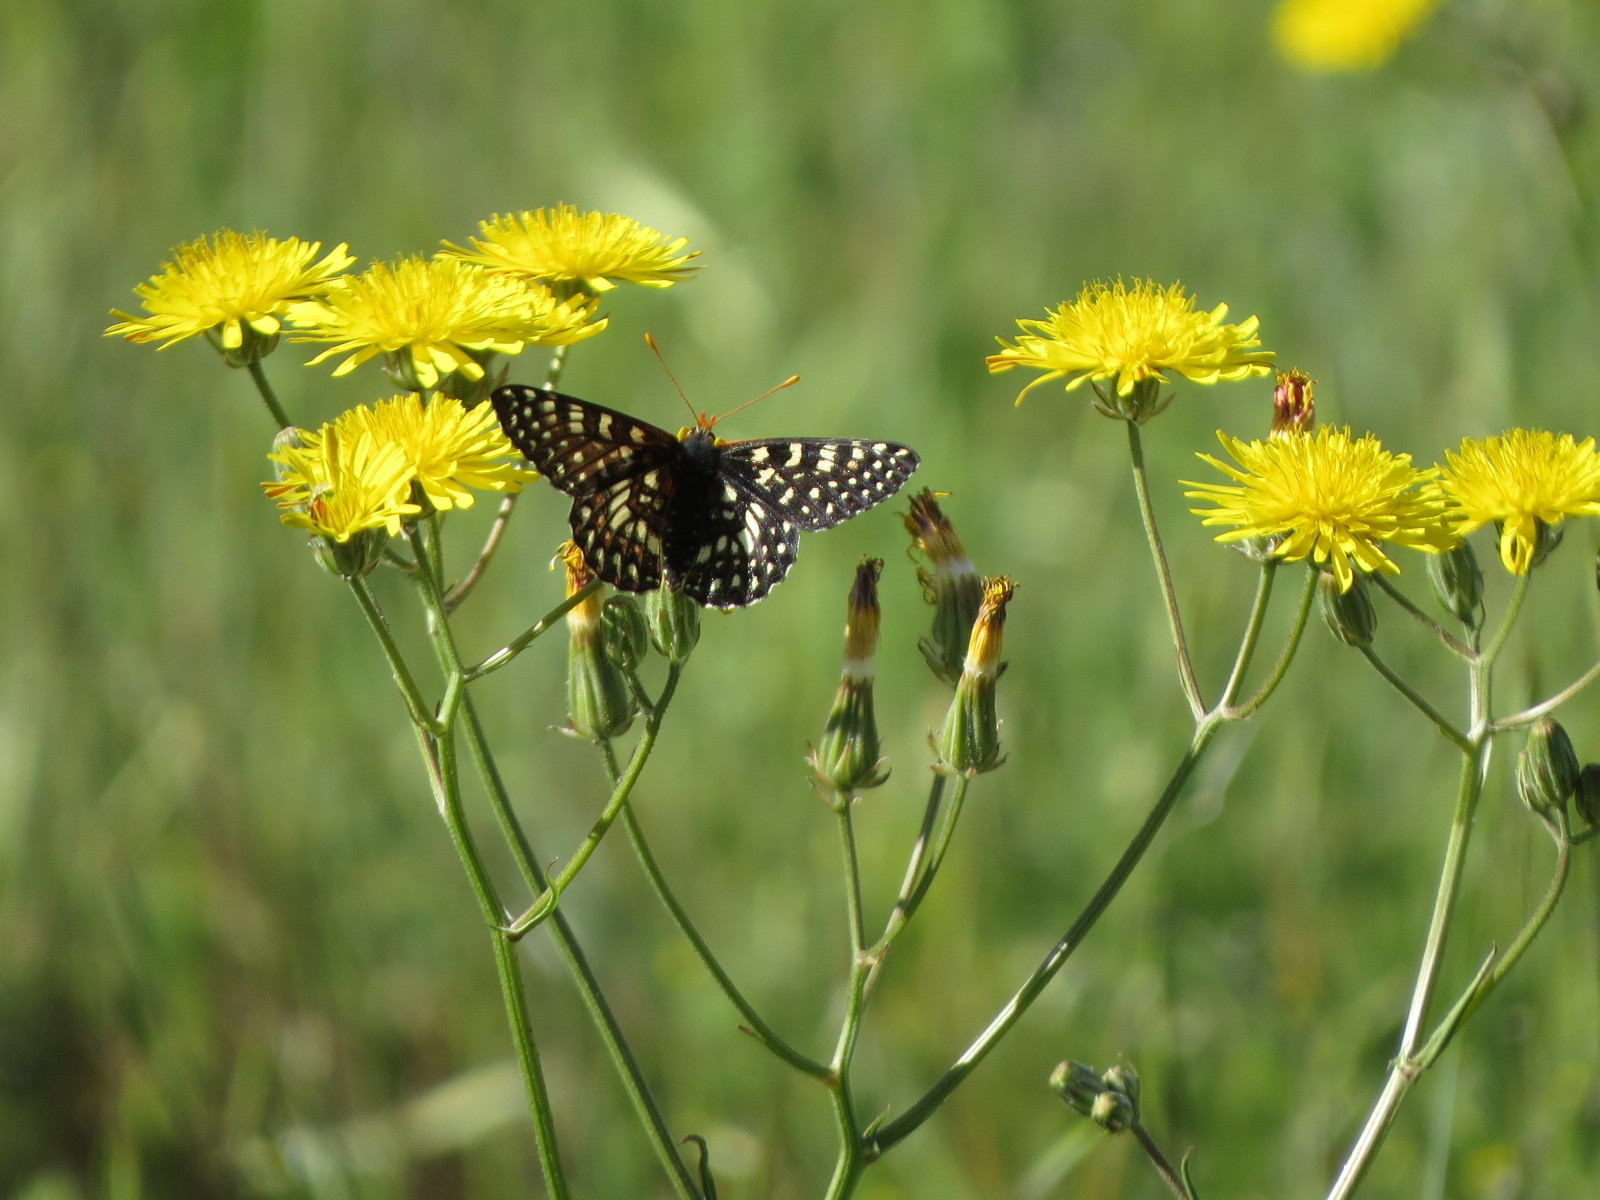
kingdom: Animalia
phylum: Arthropoda
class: Insecta
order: Lepidoptera
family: Nymphalidae
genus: Occidryas
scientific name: Occidryas chalcedona
